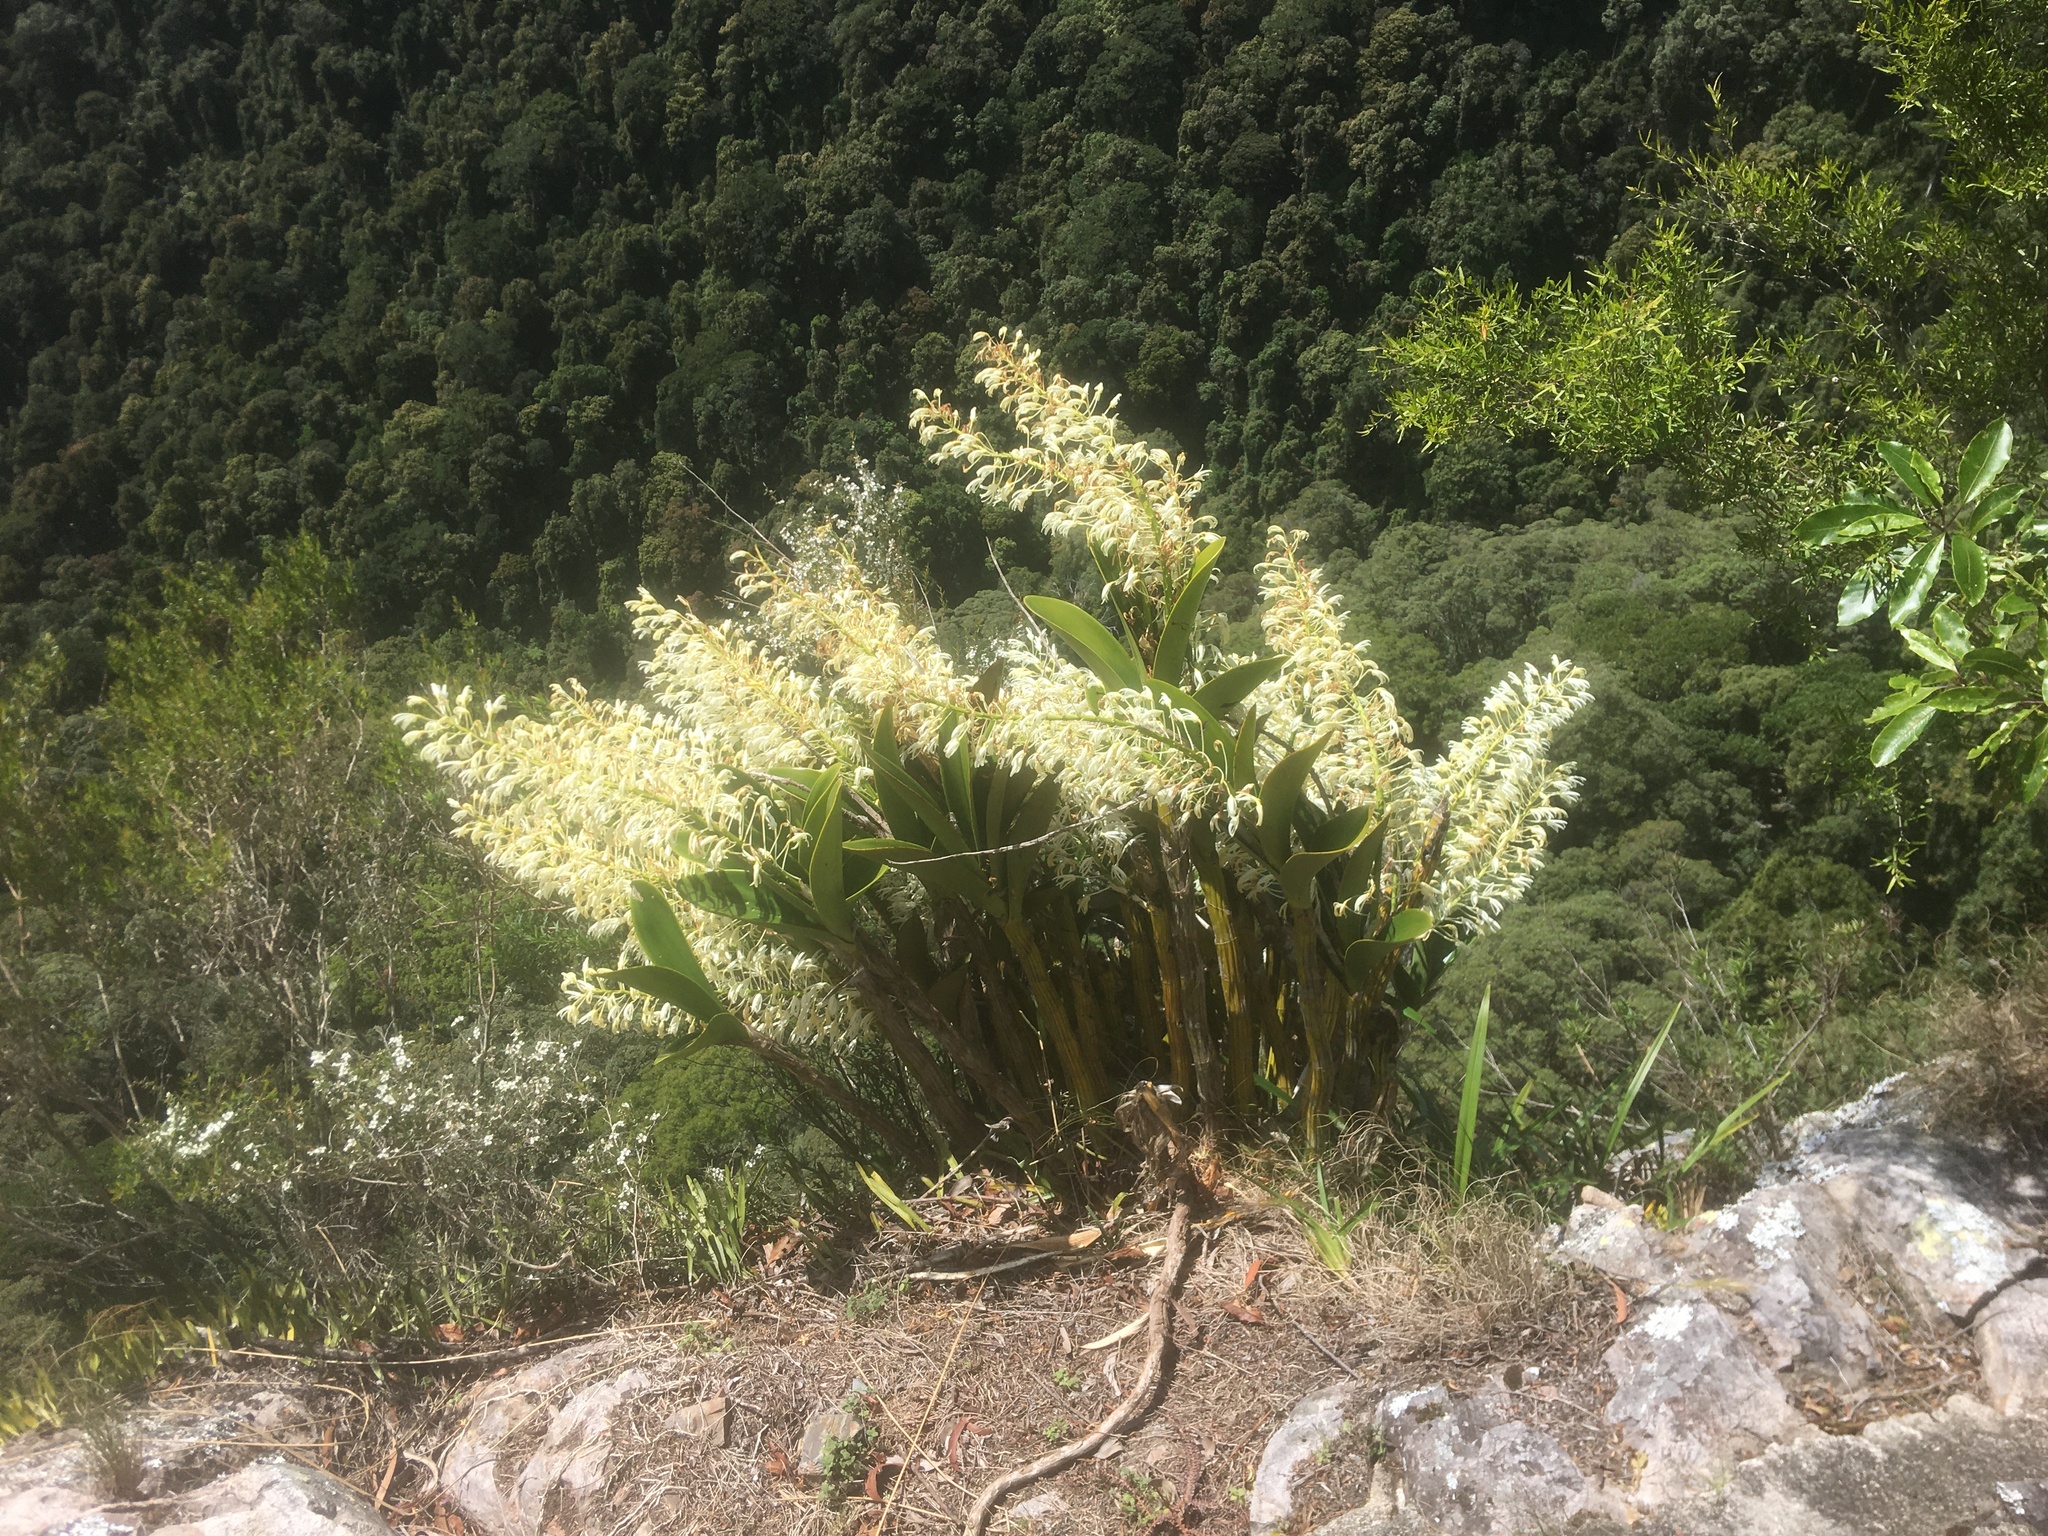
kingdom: Plantae
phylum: Tracheophyta
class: Liliopsida
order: Asparagales
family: Orchidaceae
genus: Dendrobium
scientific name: Dendrobium speciosum
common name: Rock-lily
